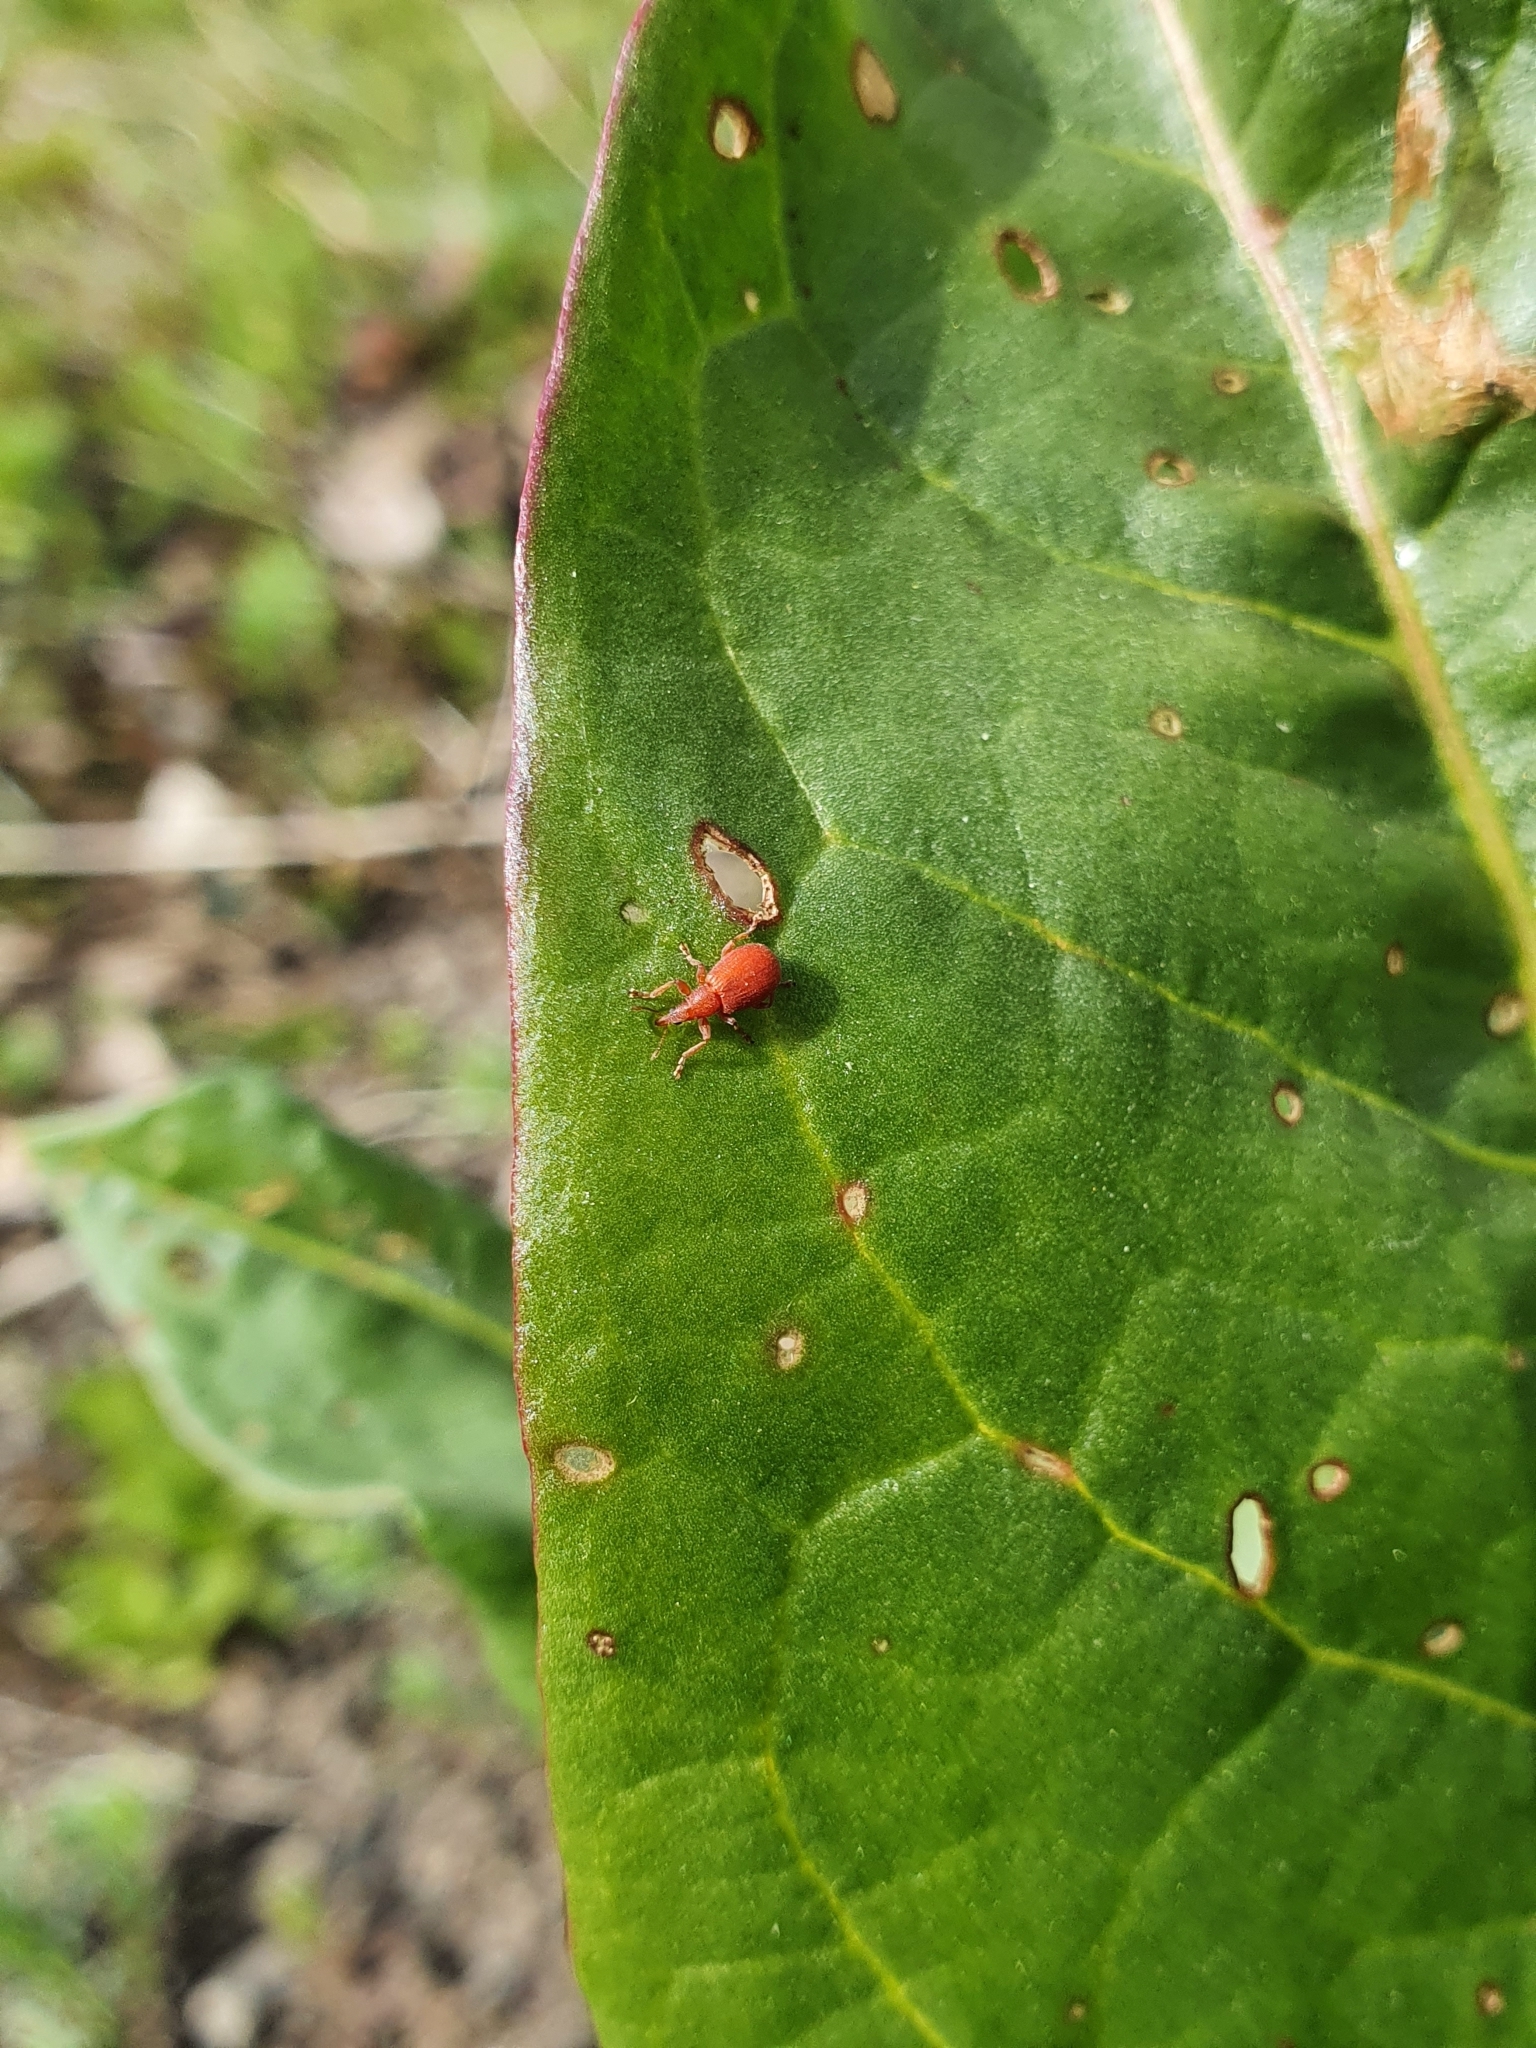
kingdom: Animalia
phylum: Arthropoda
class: Insecta
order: Coleoptera
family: Apionidae
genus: Apion
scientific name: Apion frumentarium
